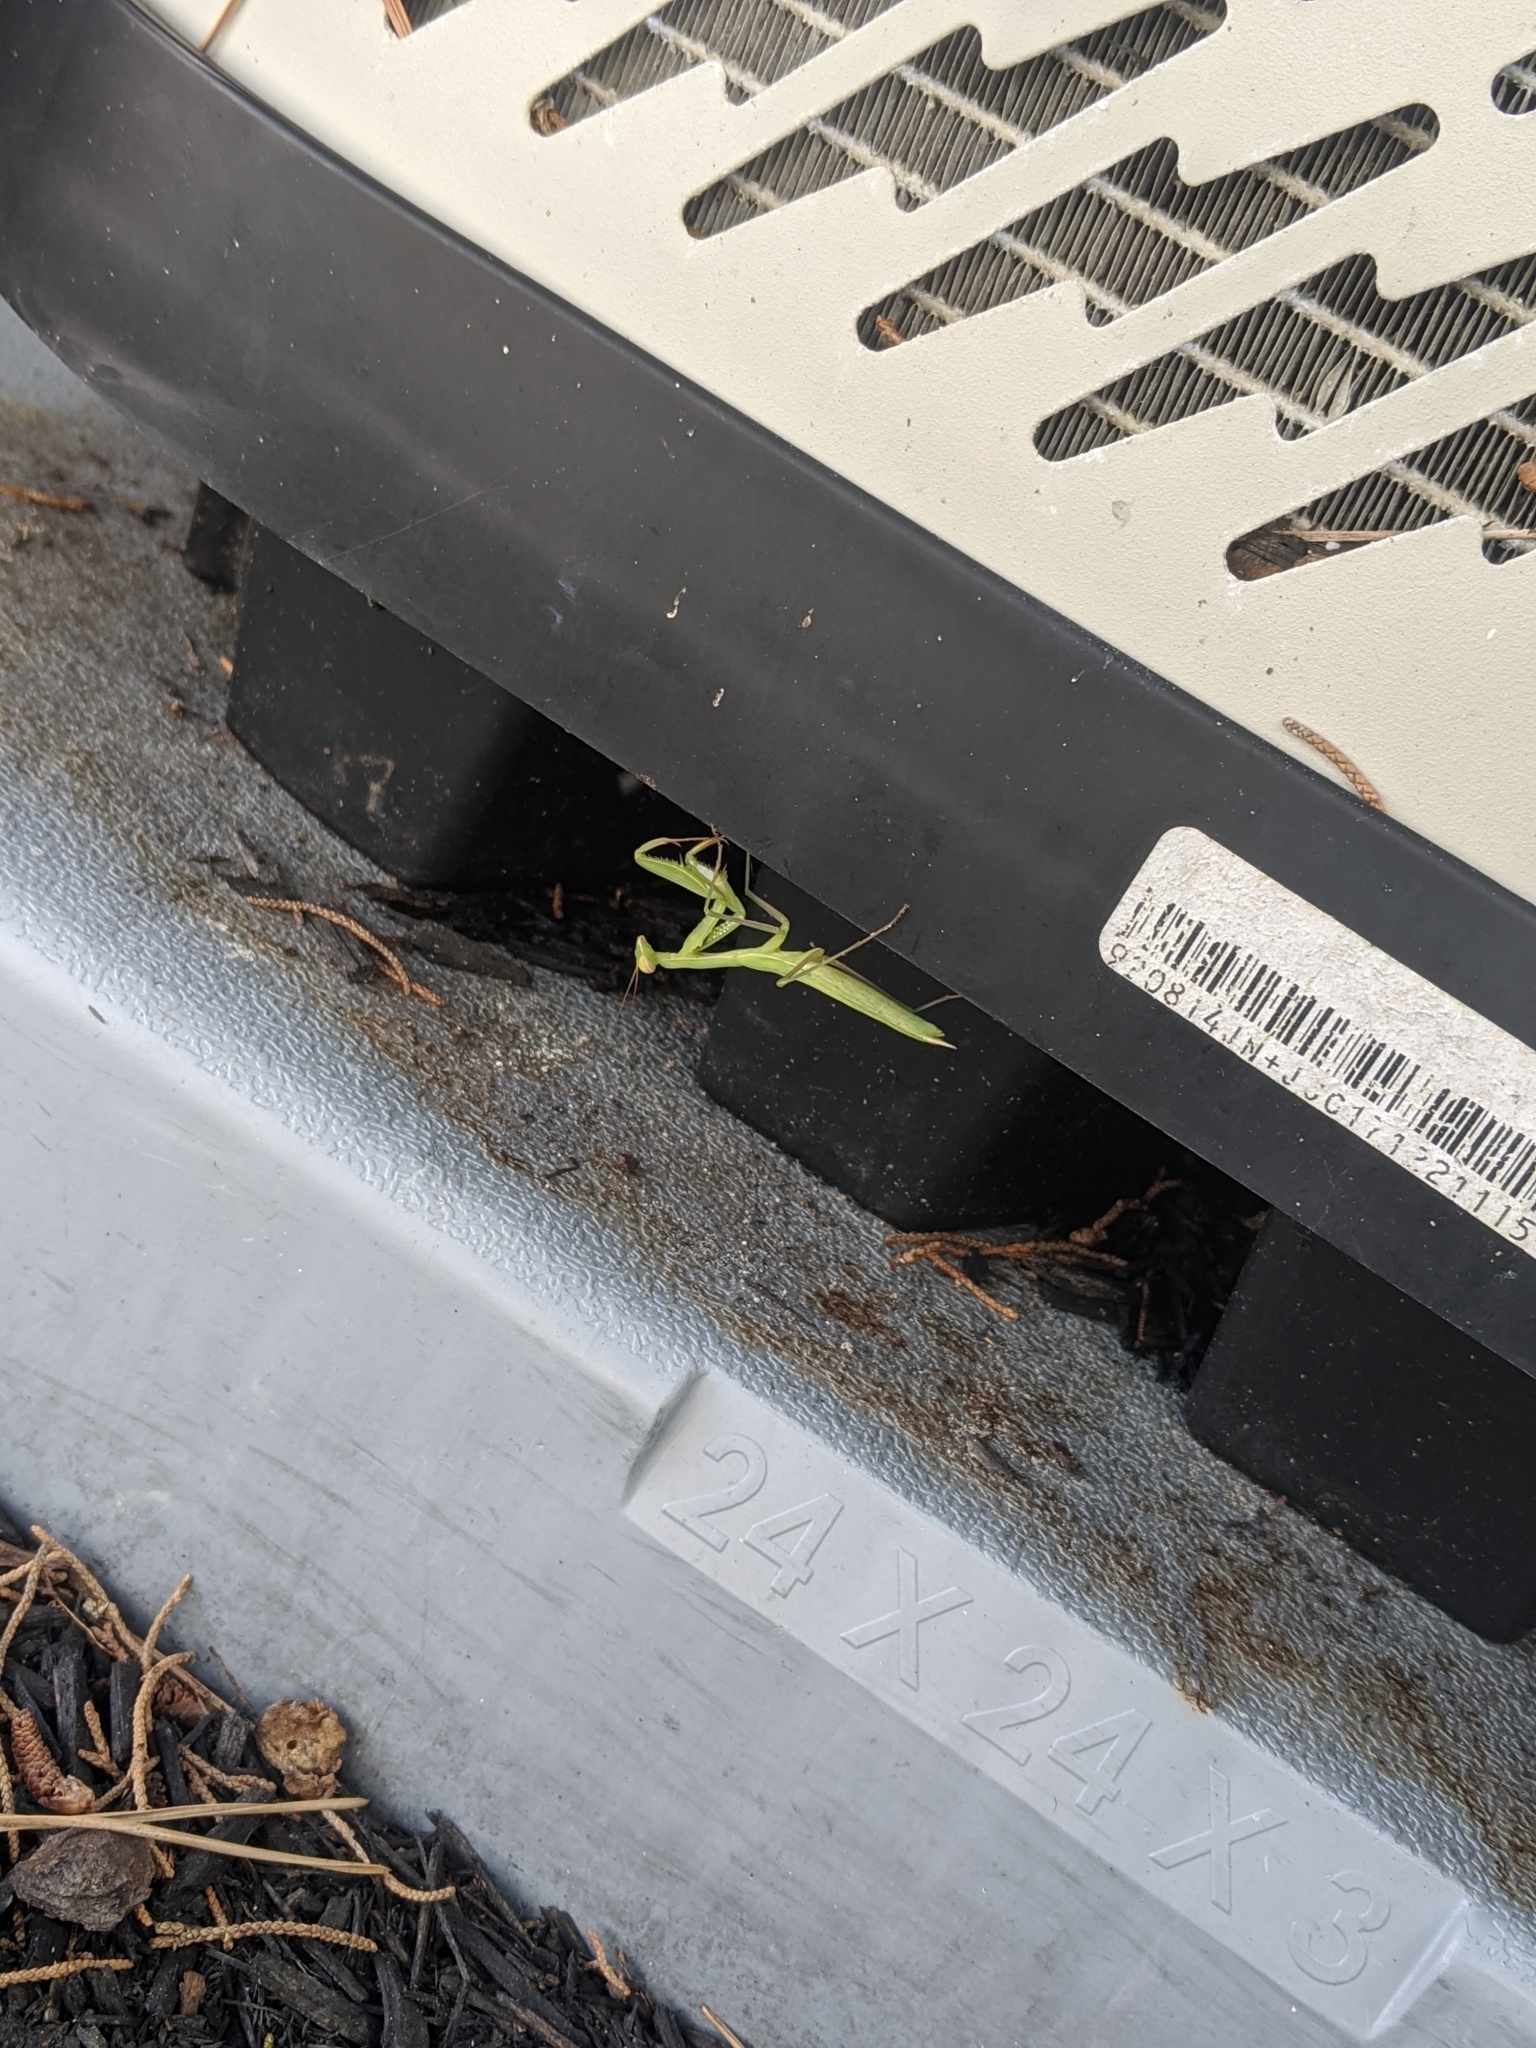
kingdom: Animalia
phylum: Arthropoda
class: Insecta
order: Mantodea
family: Mantidae
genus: Mantis
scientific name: Mantis religiosa
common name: Praying mantis
